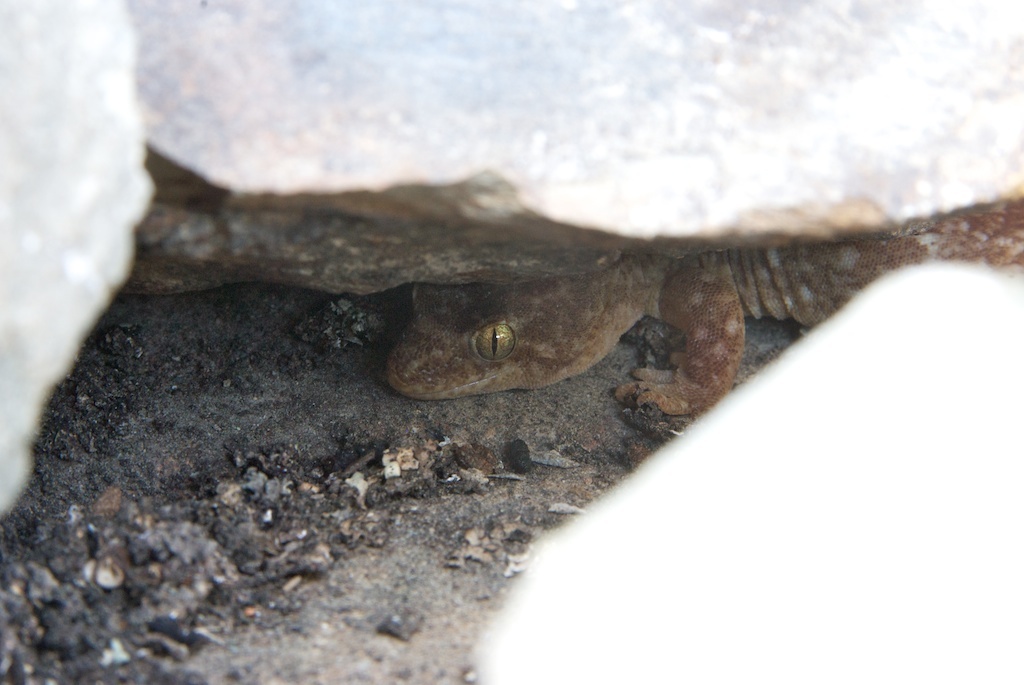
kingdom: Animalia
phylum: Chordata
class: Squamata
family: Diplodactylidae
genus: Woodworthia
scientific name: Woodworthia
